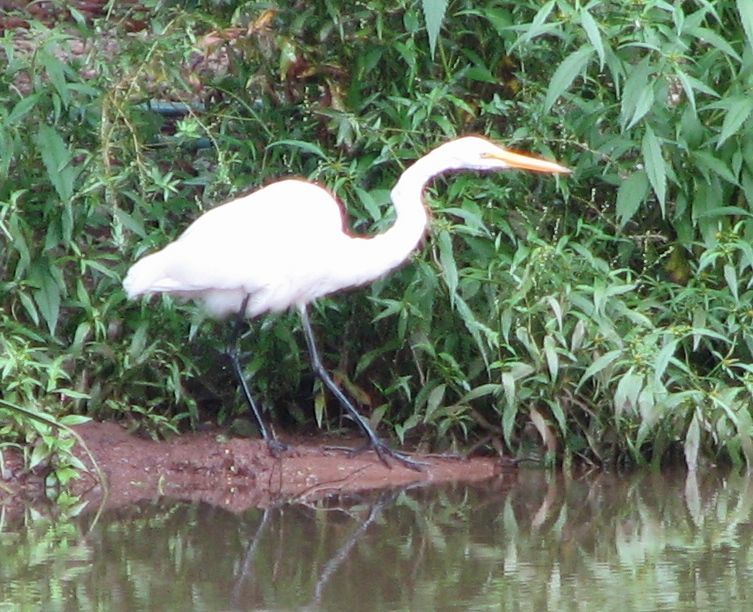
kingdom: Animalia
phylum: Chordata
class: Aves
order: Pelecaniformes
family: Ardeidae
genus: Ardea
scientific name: Ardea alba
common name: Great egret
